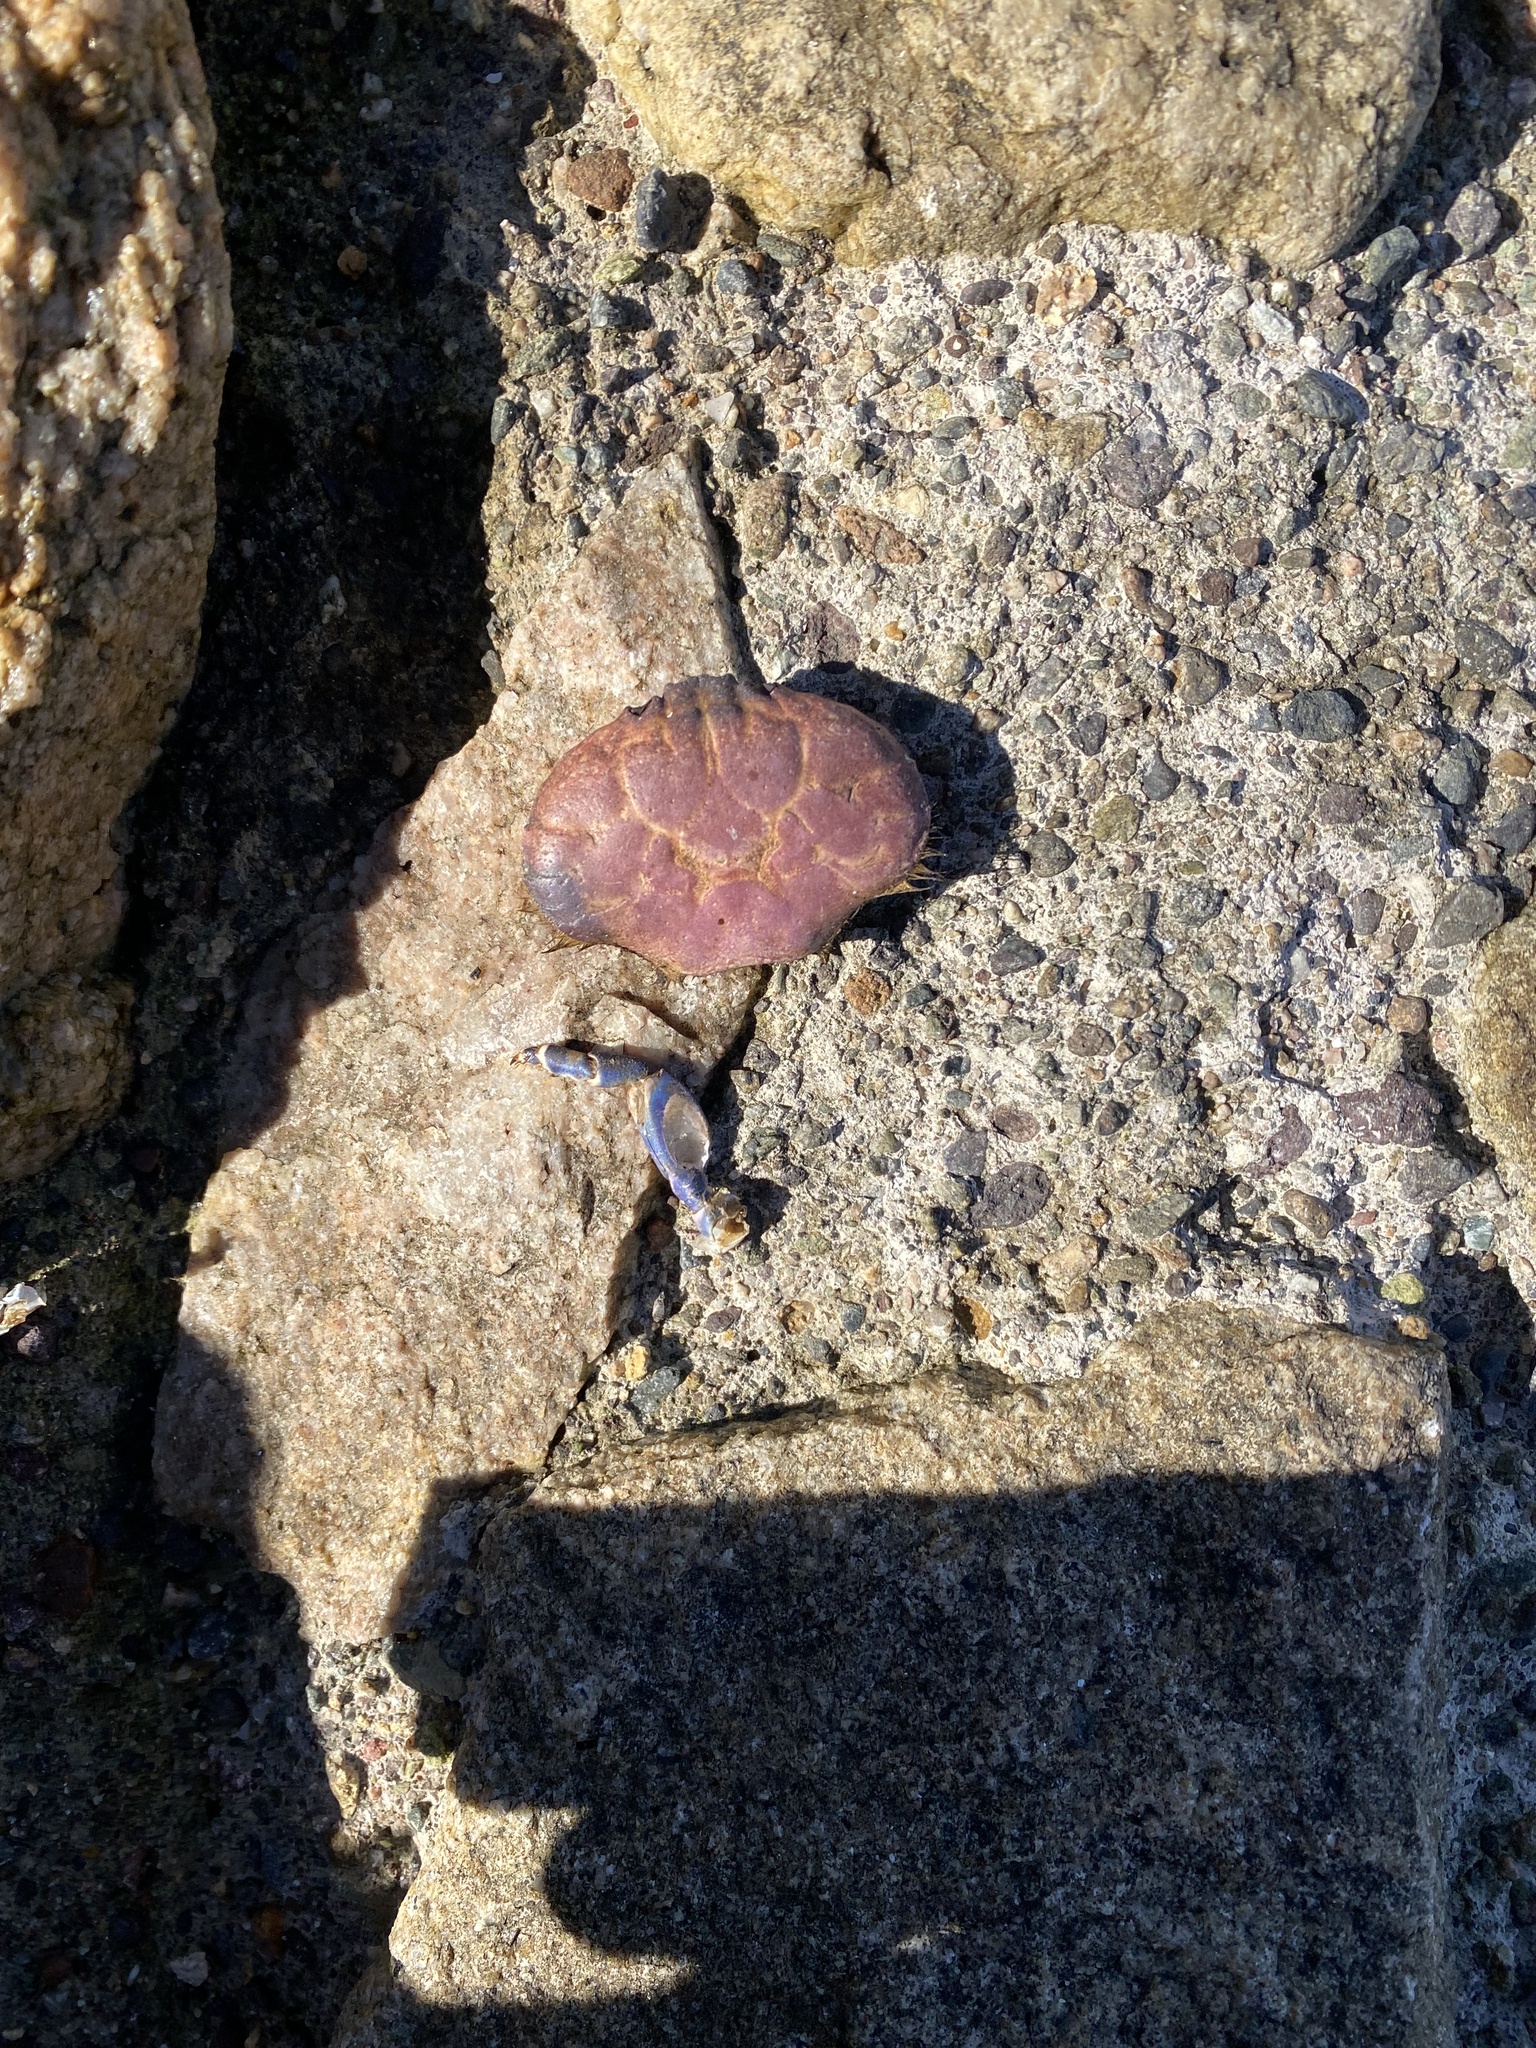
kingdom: Animalia
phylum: Arthropoda
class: Malacostraca
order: Decapoda
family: Xanthidae
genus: Paraxanthus
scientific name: Paraxanthus barbiger
